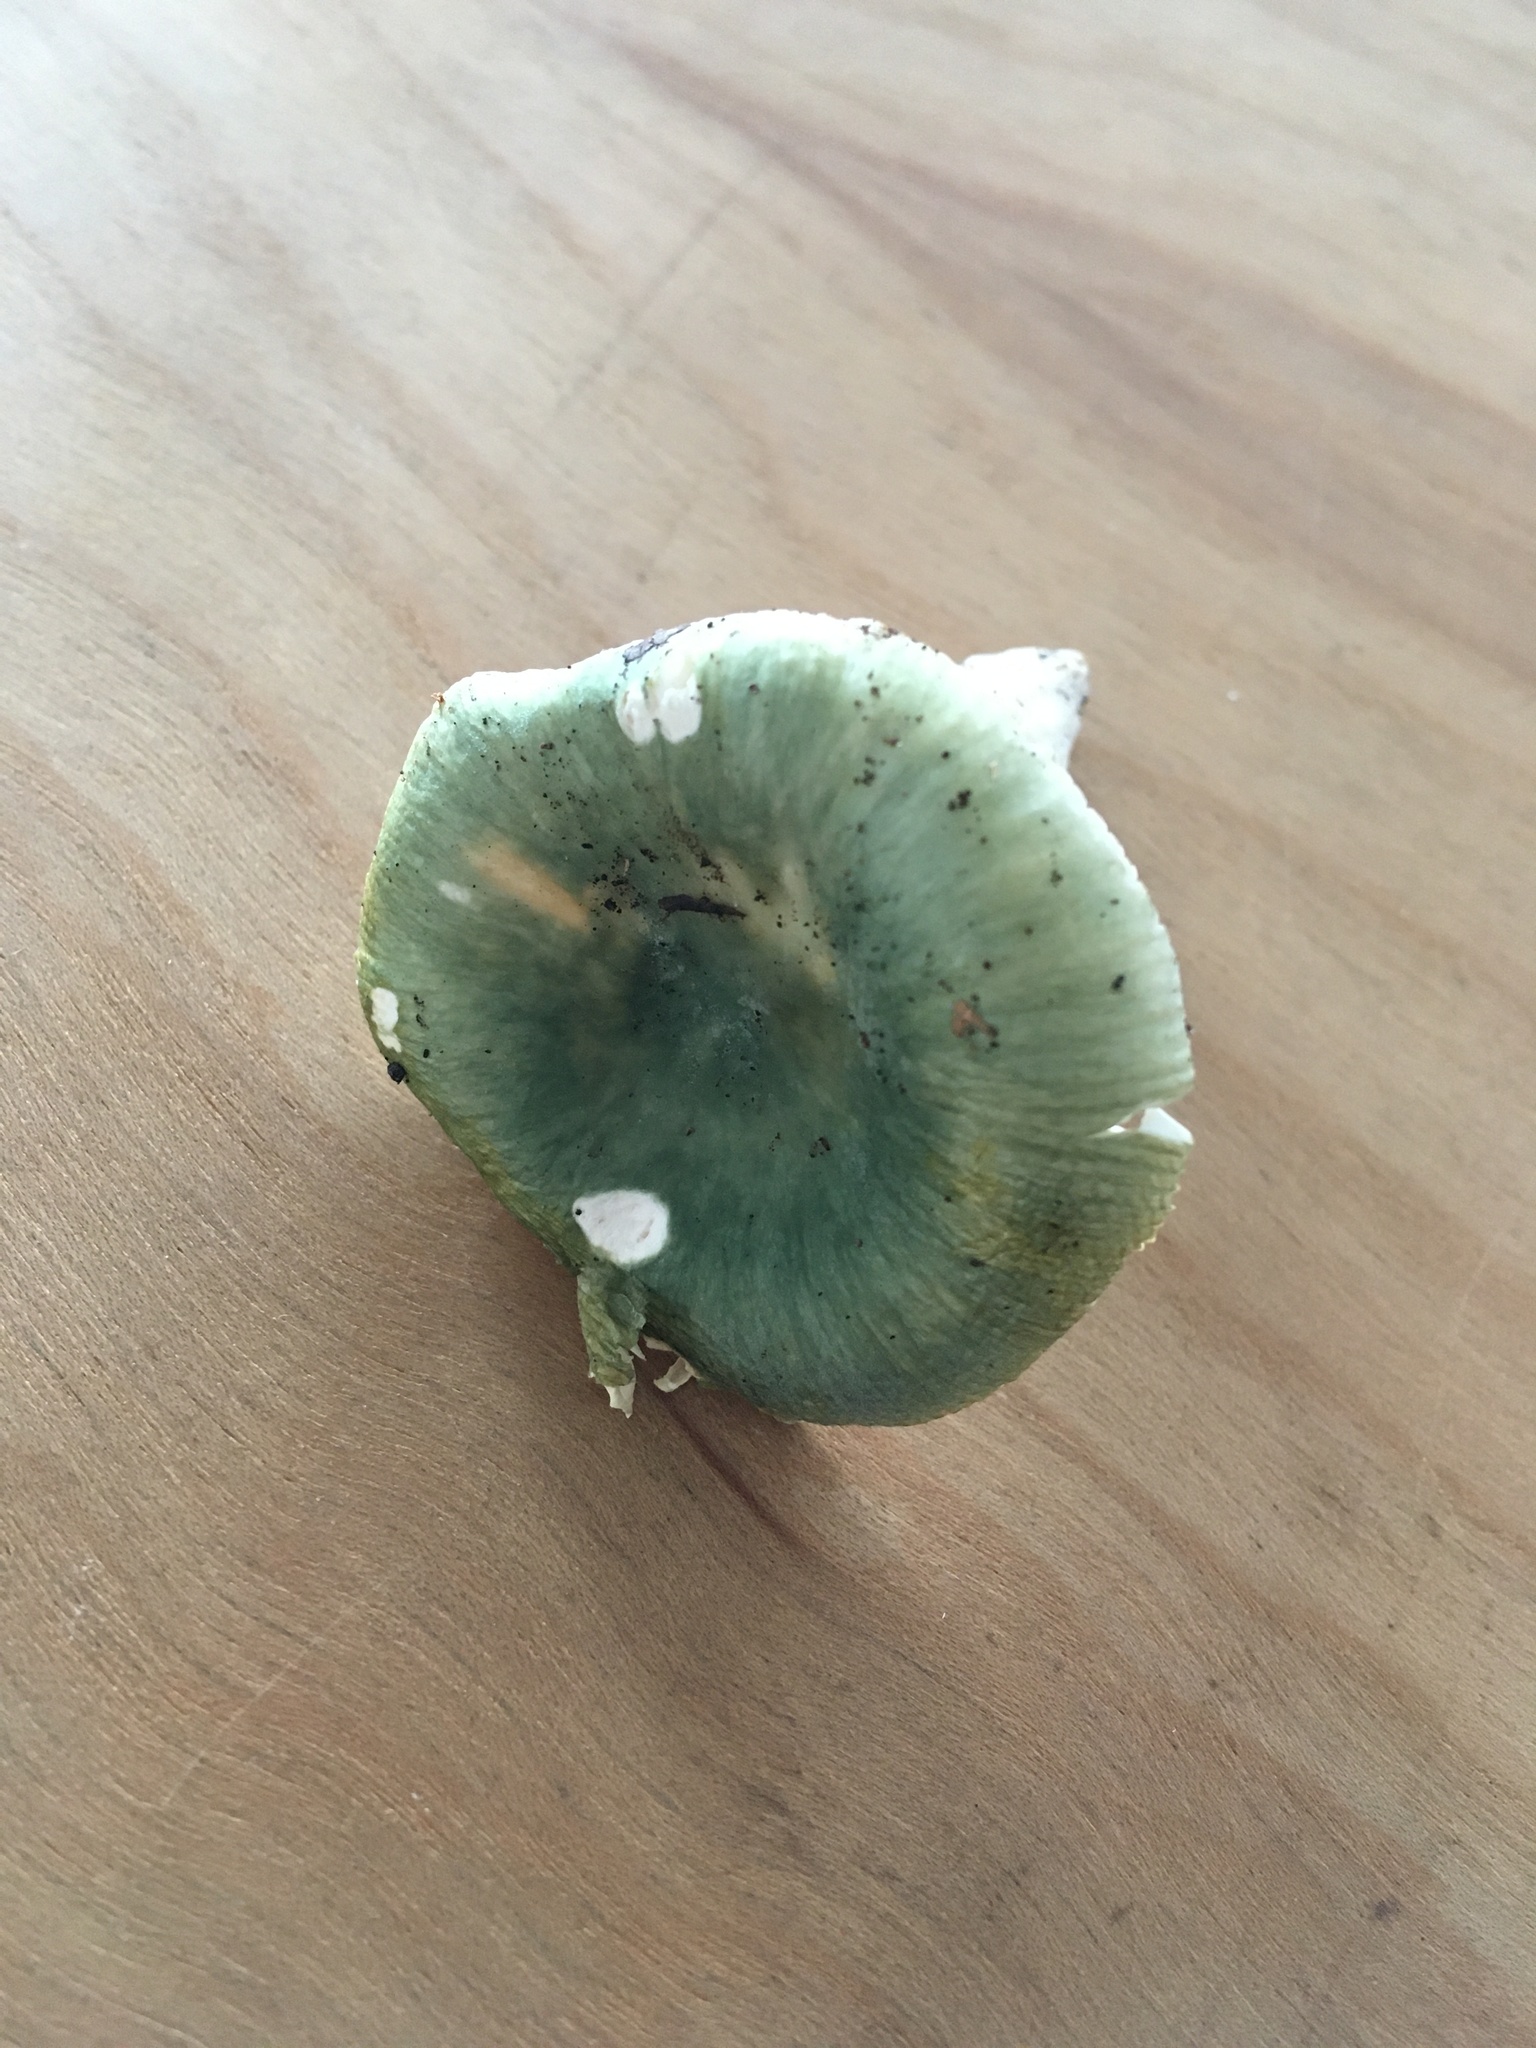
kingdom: Fungi
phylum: Basidiomycota
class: Agaricomycetes
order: Russulales
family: Russulaceae
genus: Russula
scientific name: Russula heterophylla
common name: Greasy green brittlegill
